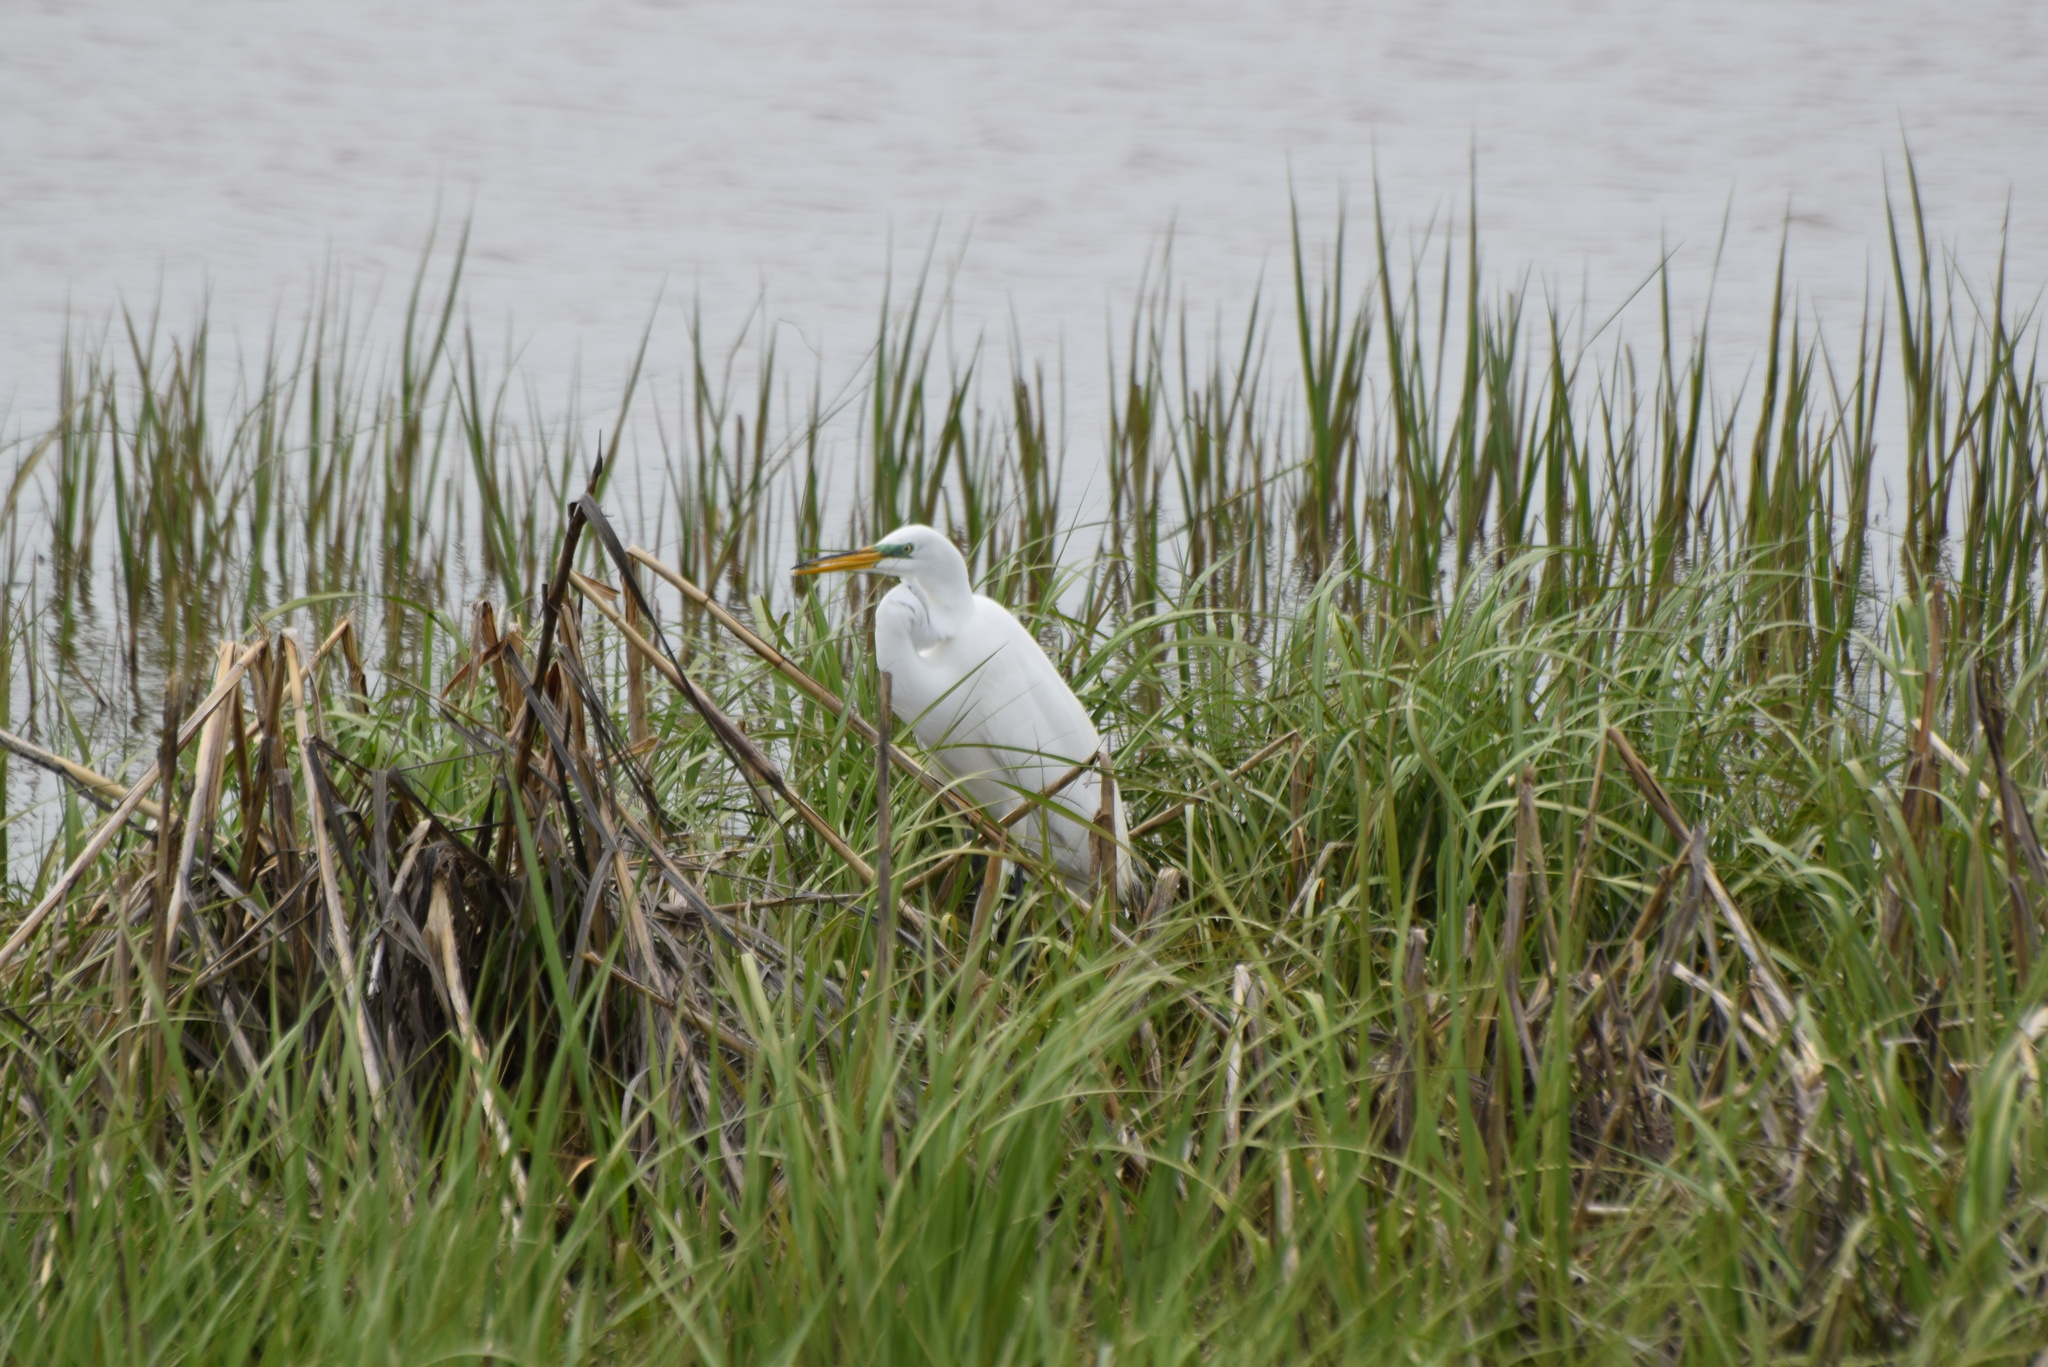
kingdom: Animalia
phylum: Chordata
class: Aves
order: Pelecaniformes
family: Ardeidae
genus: Ardea
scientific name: Ardea alba
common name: Great egret
